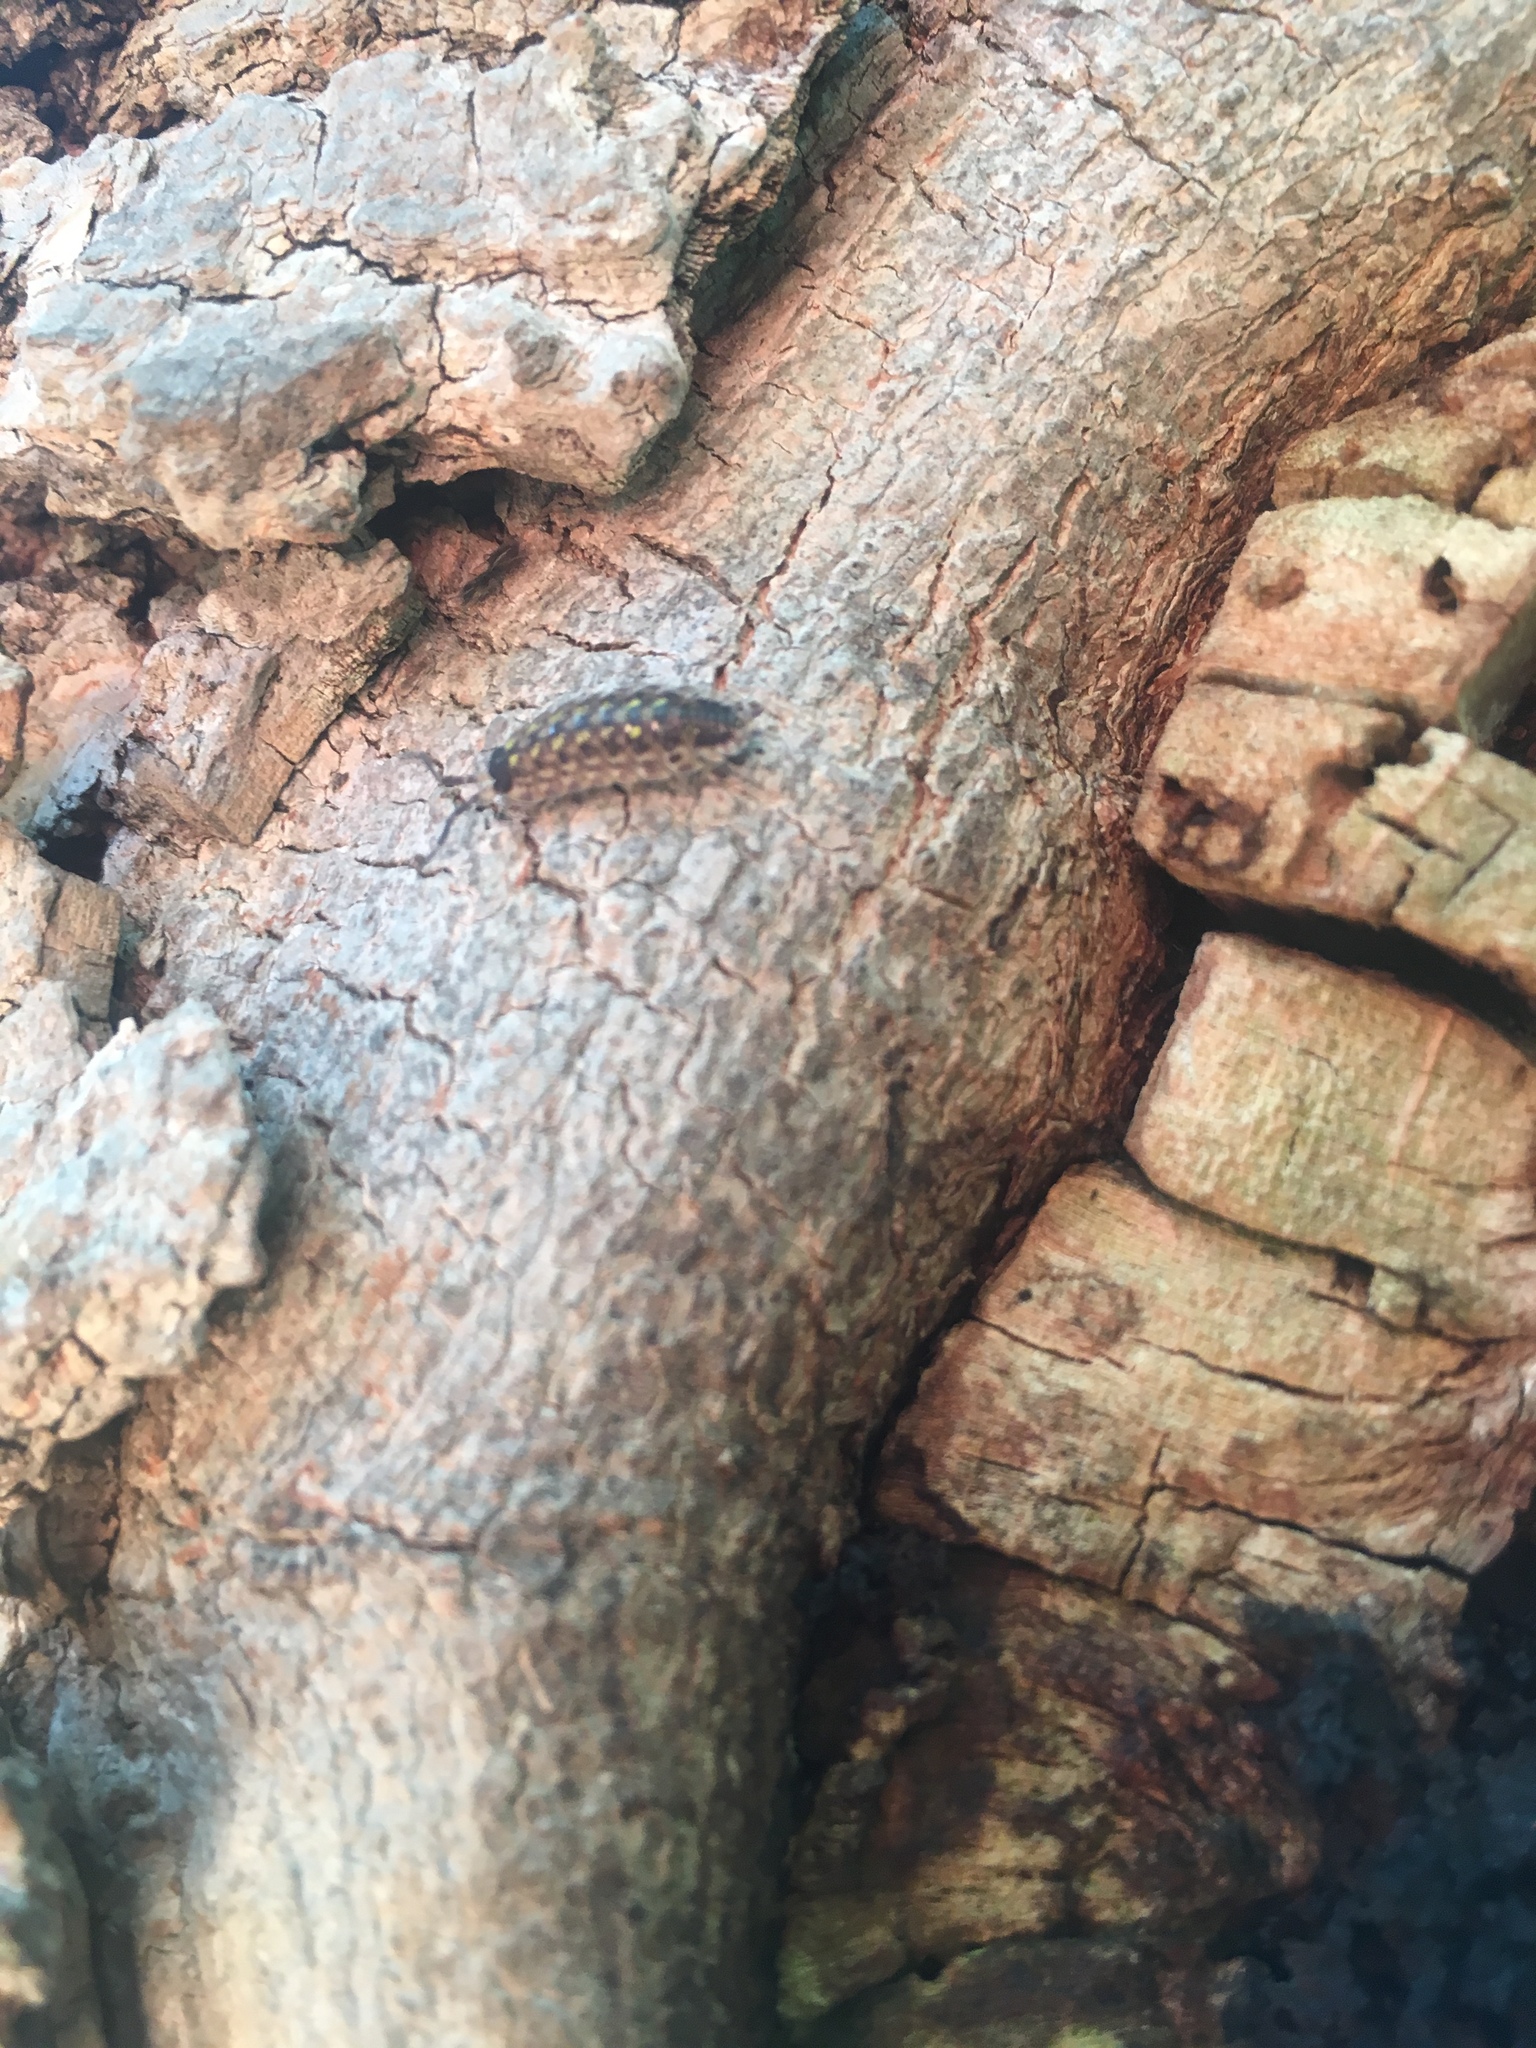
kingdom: Animalia
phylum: Arthropoda
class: Malacostraca
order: Isopoda
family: Porcellionidae
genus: Porcellio
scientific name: Porcellio spinicornis
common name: Painted woodlouse
